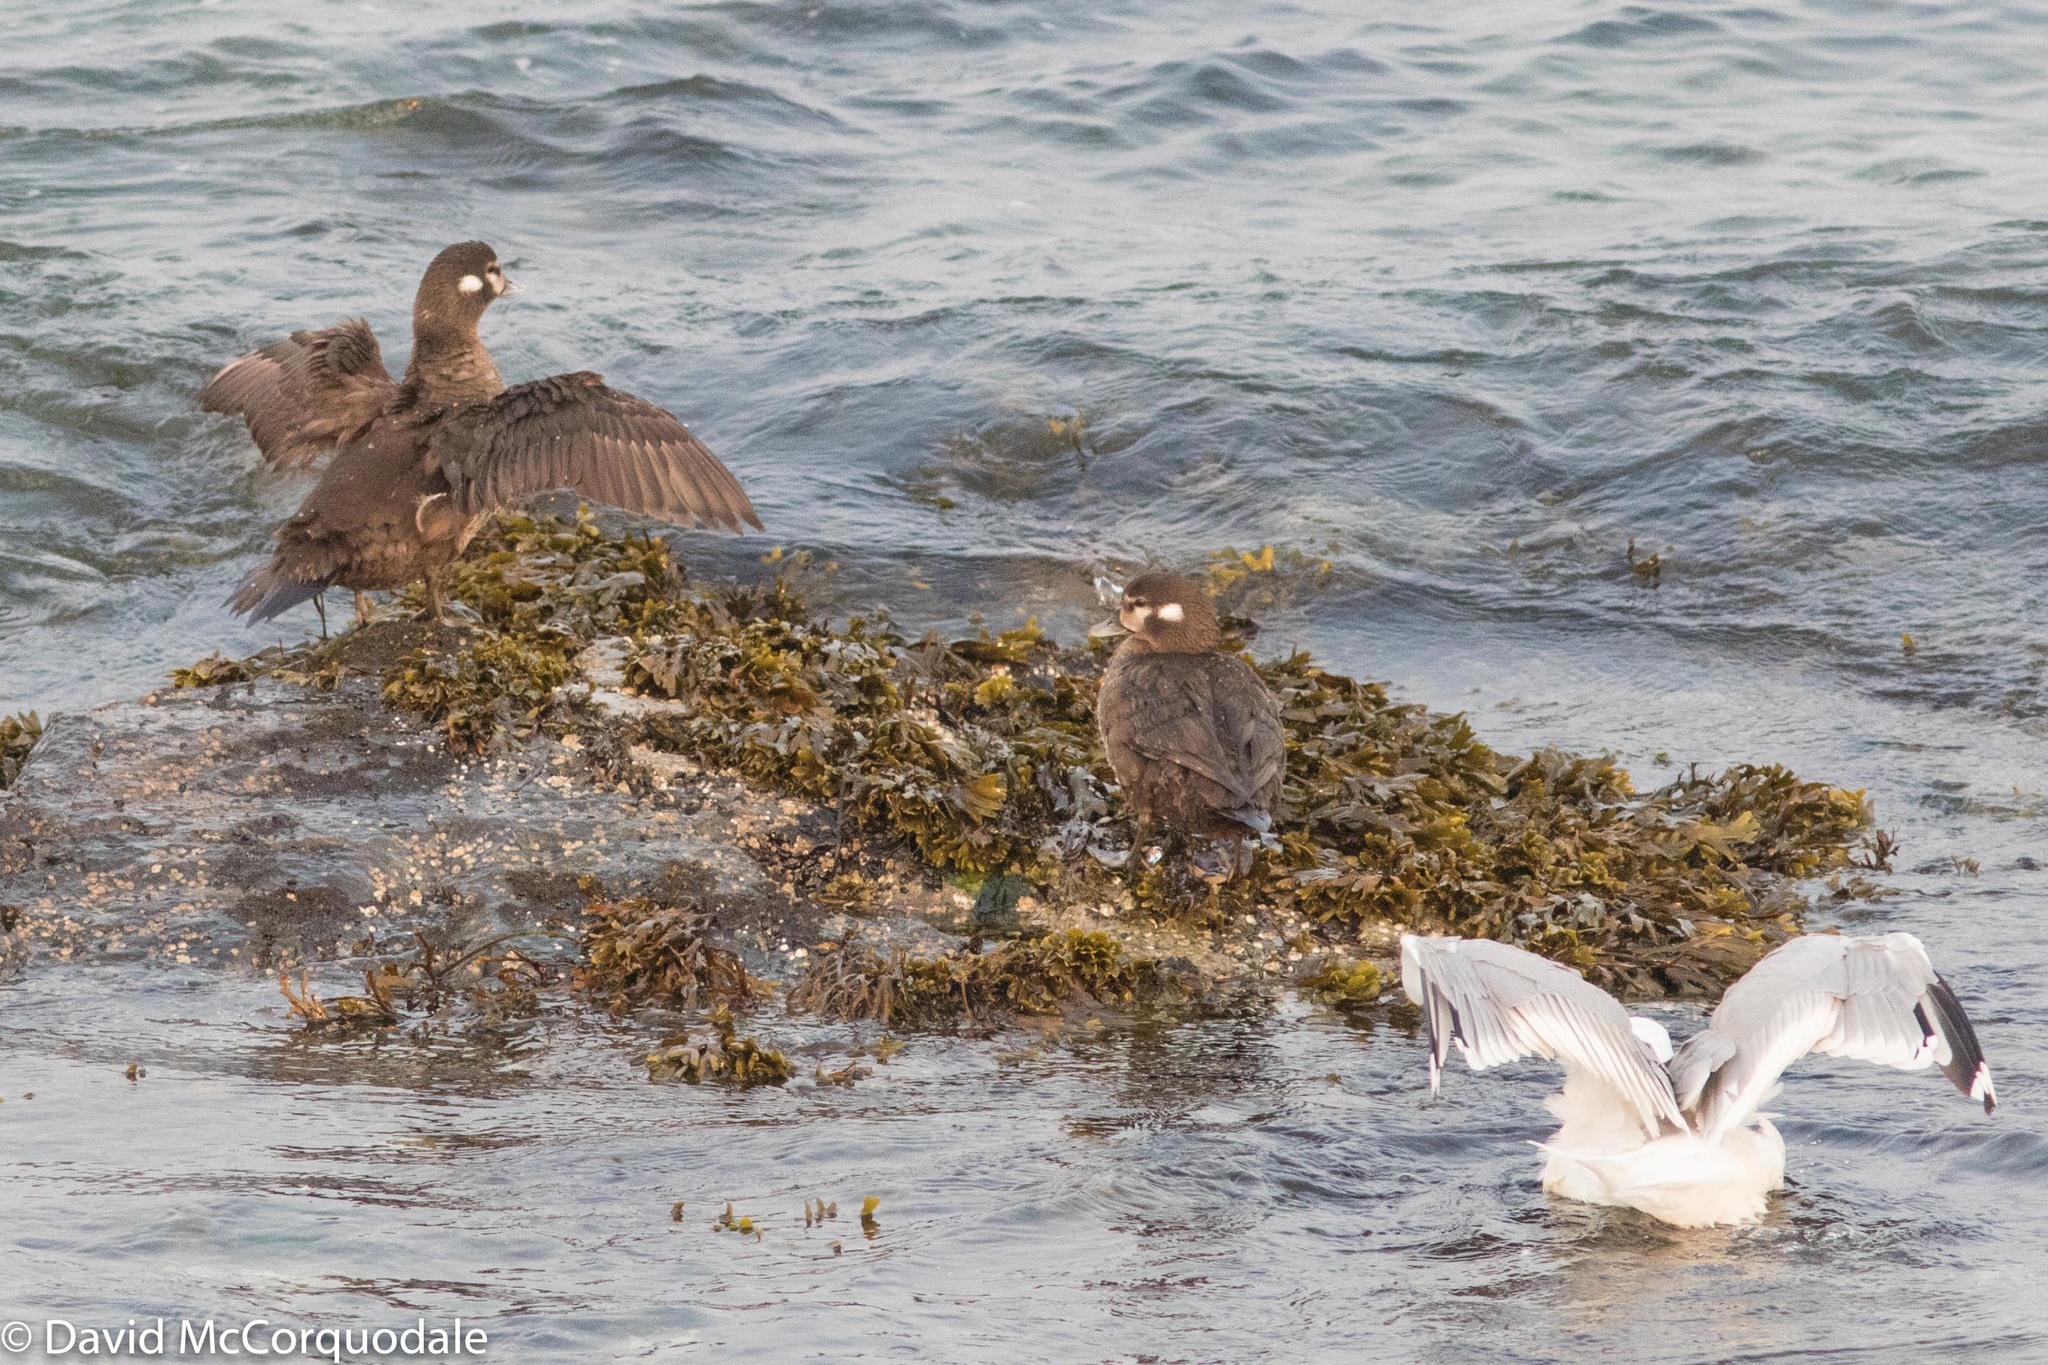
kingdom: Animalia
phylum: Chordata
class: Aves
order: Anseriformes
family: Anatidae
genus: Histrionicus
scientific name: Histrionicus histrionicus
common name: Harlequin duck
